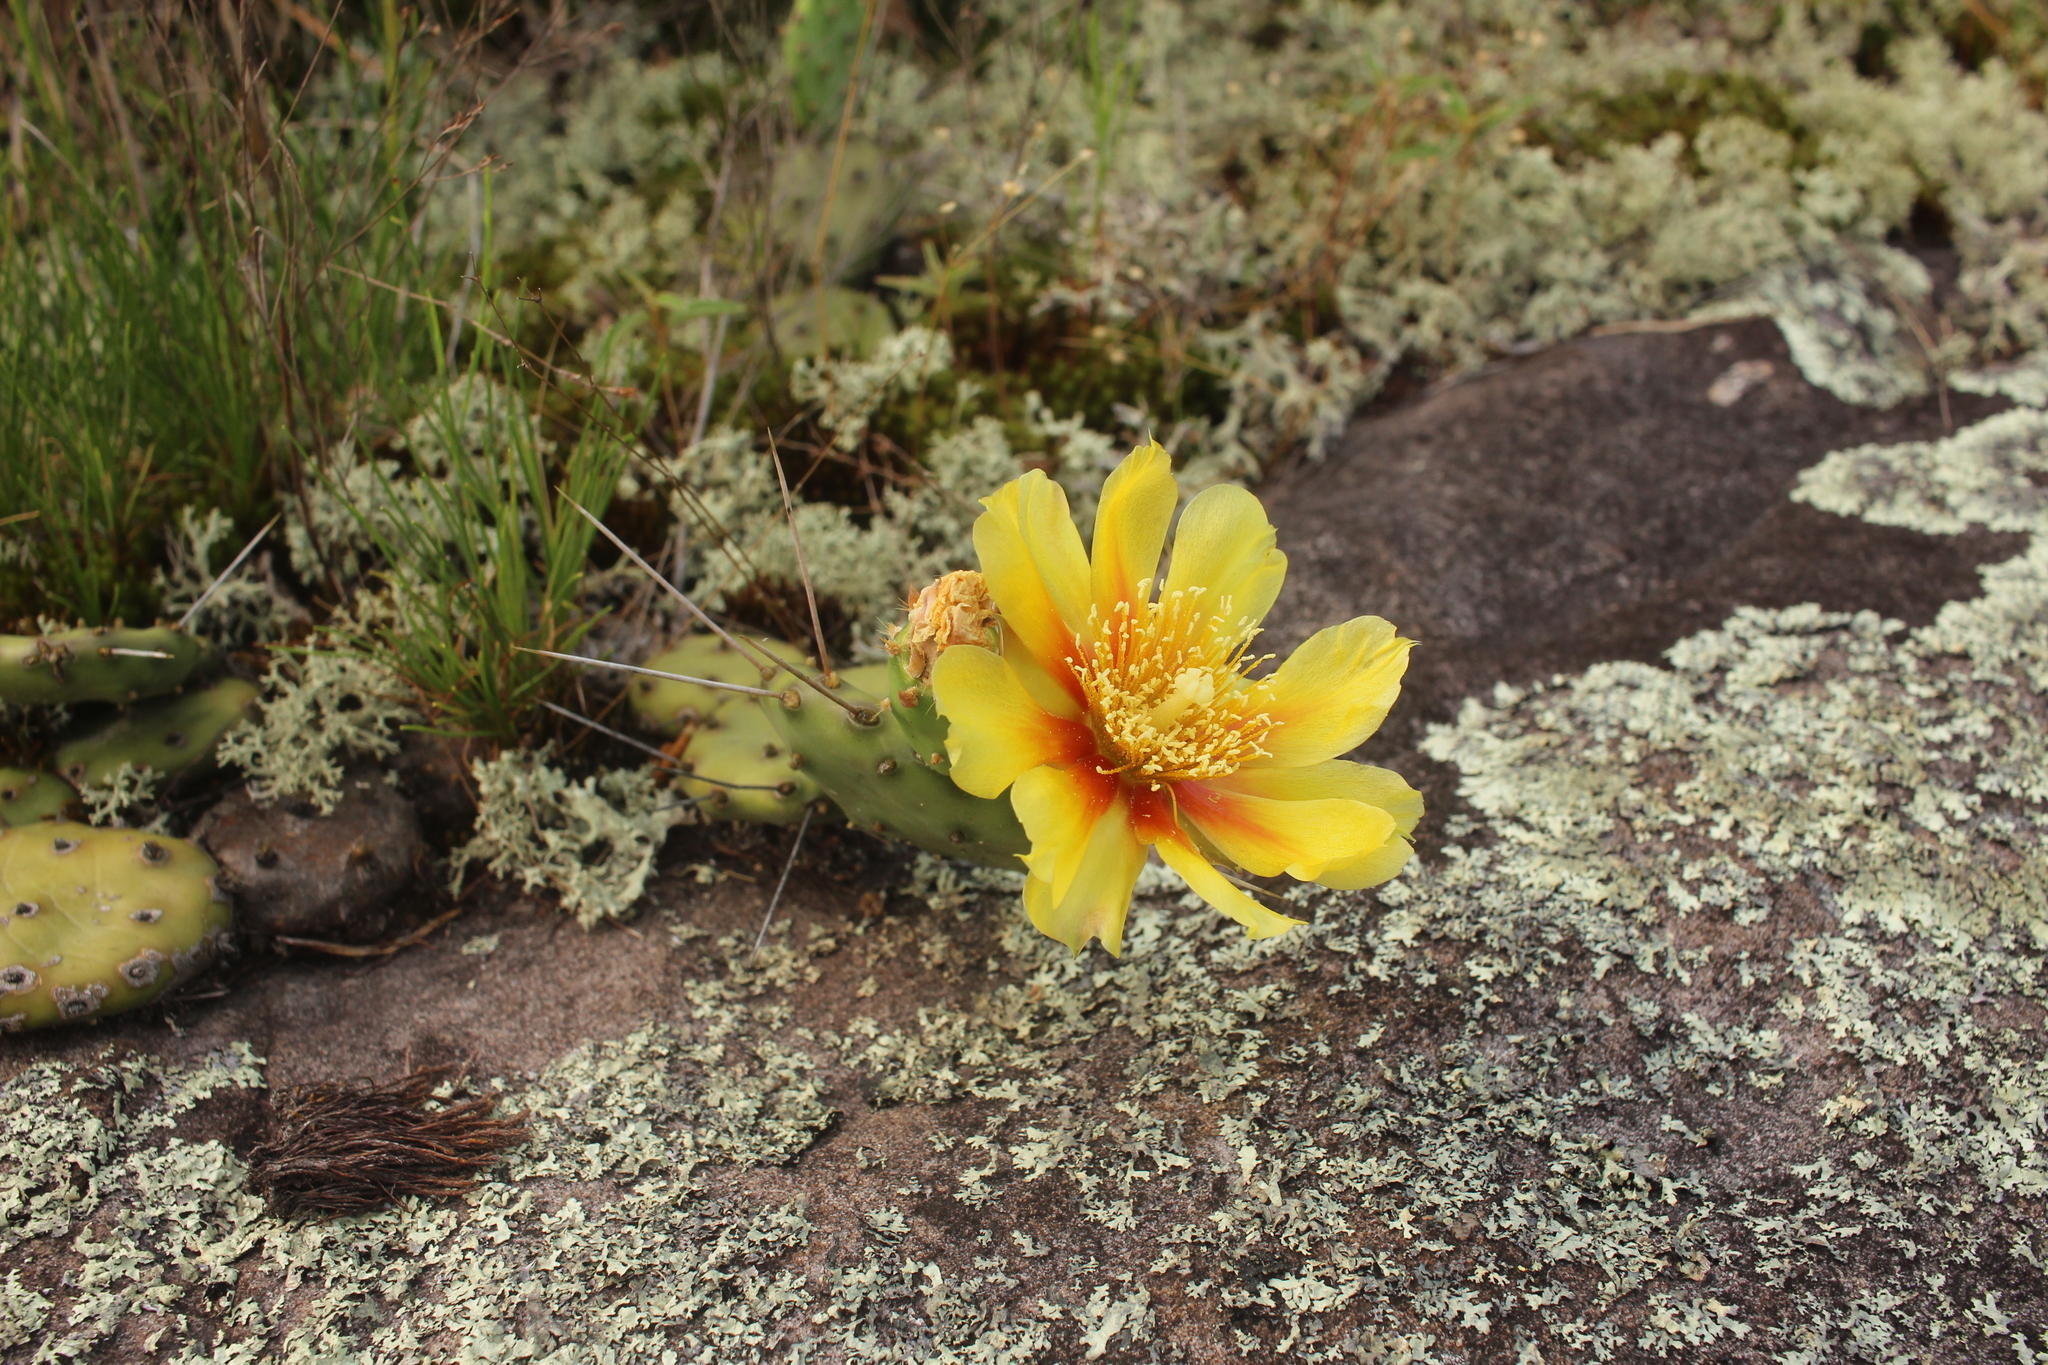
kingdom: Plantae
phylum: Tracheophyta
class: Magnoliopsida
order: Caryophyllales
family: Cactaceae
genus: Opuntia
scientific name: Opuntia humifusa
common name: Eastern prickly-pear
